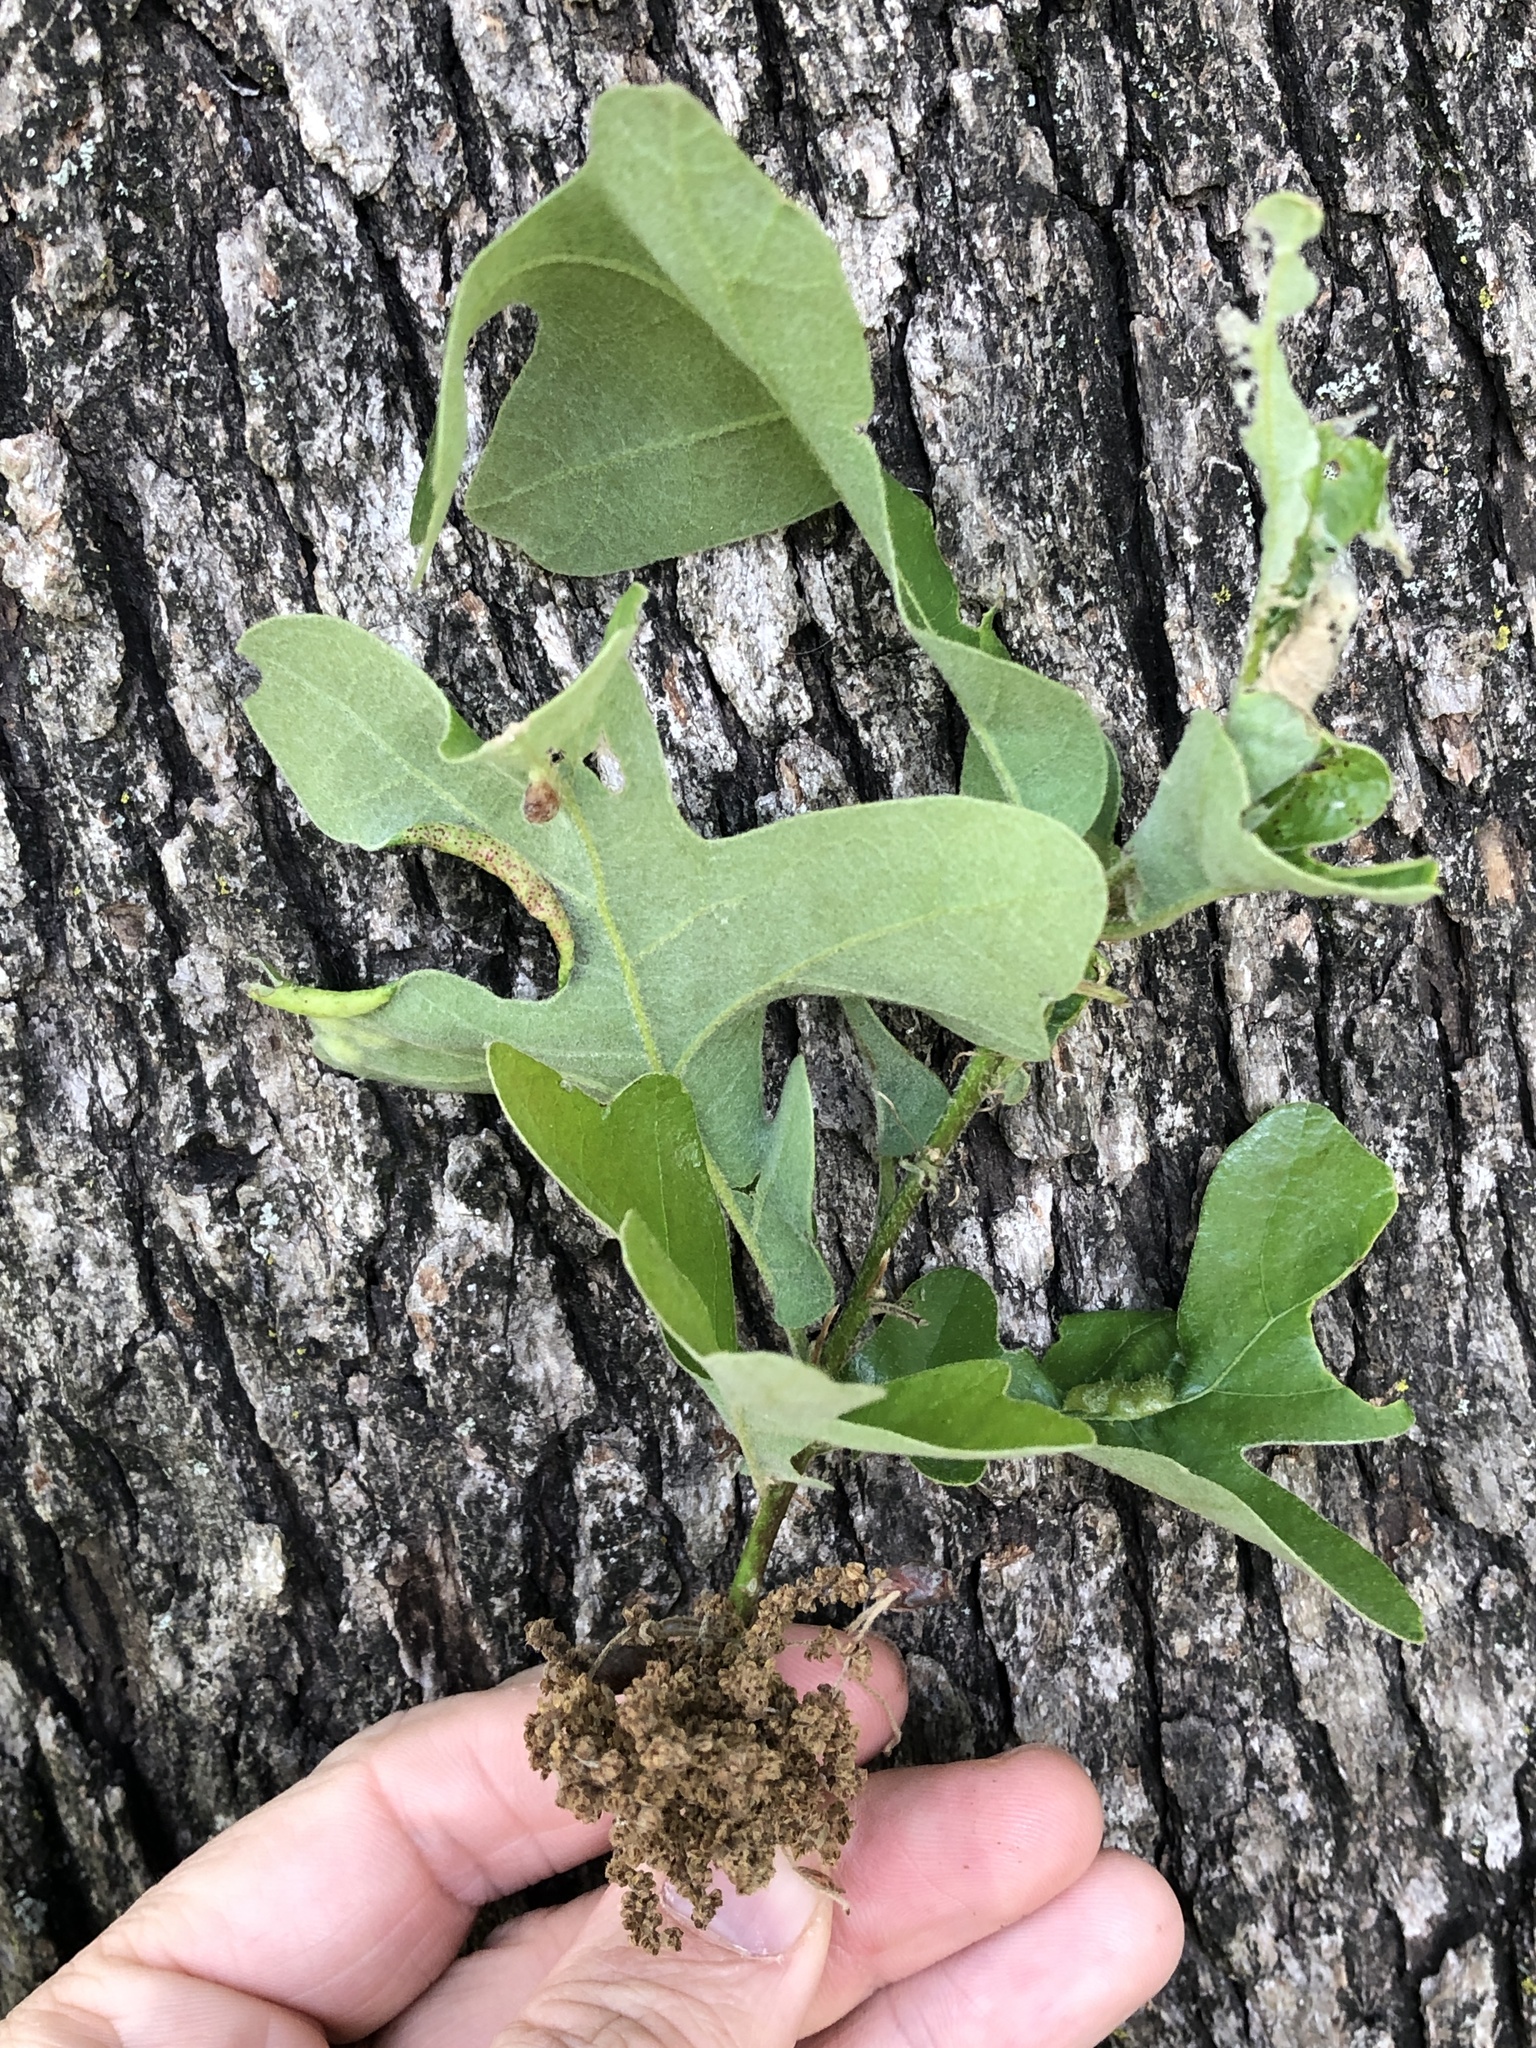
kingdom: Plantae
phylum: Tracheophyta
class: Magnoliopsida
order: Fagales
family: Fagaceae
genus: Quercus
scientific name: Quercus stellata
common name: Post oak
